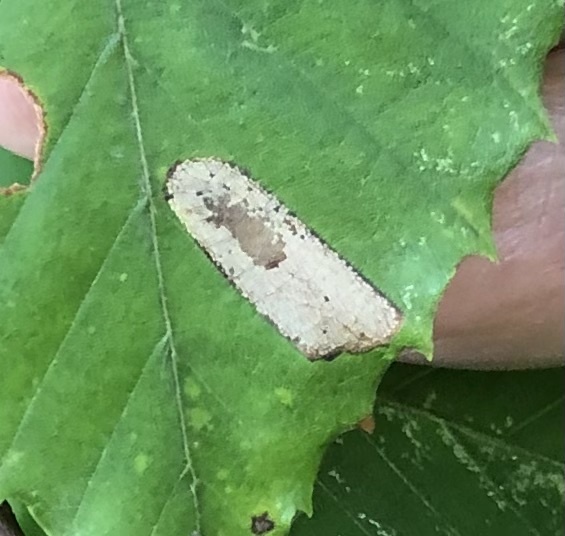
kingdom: Animalia
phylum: Arthropoda
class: Insecta
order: Lepidoptera
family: Gracillariidae
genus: Phyllonorycter
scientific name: Phyllonorycter maestingella
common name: Beech midget
